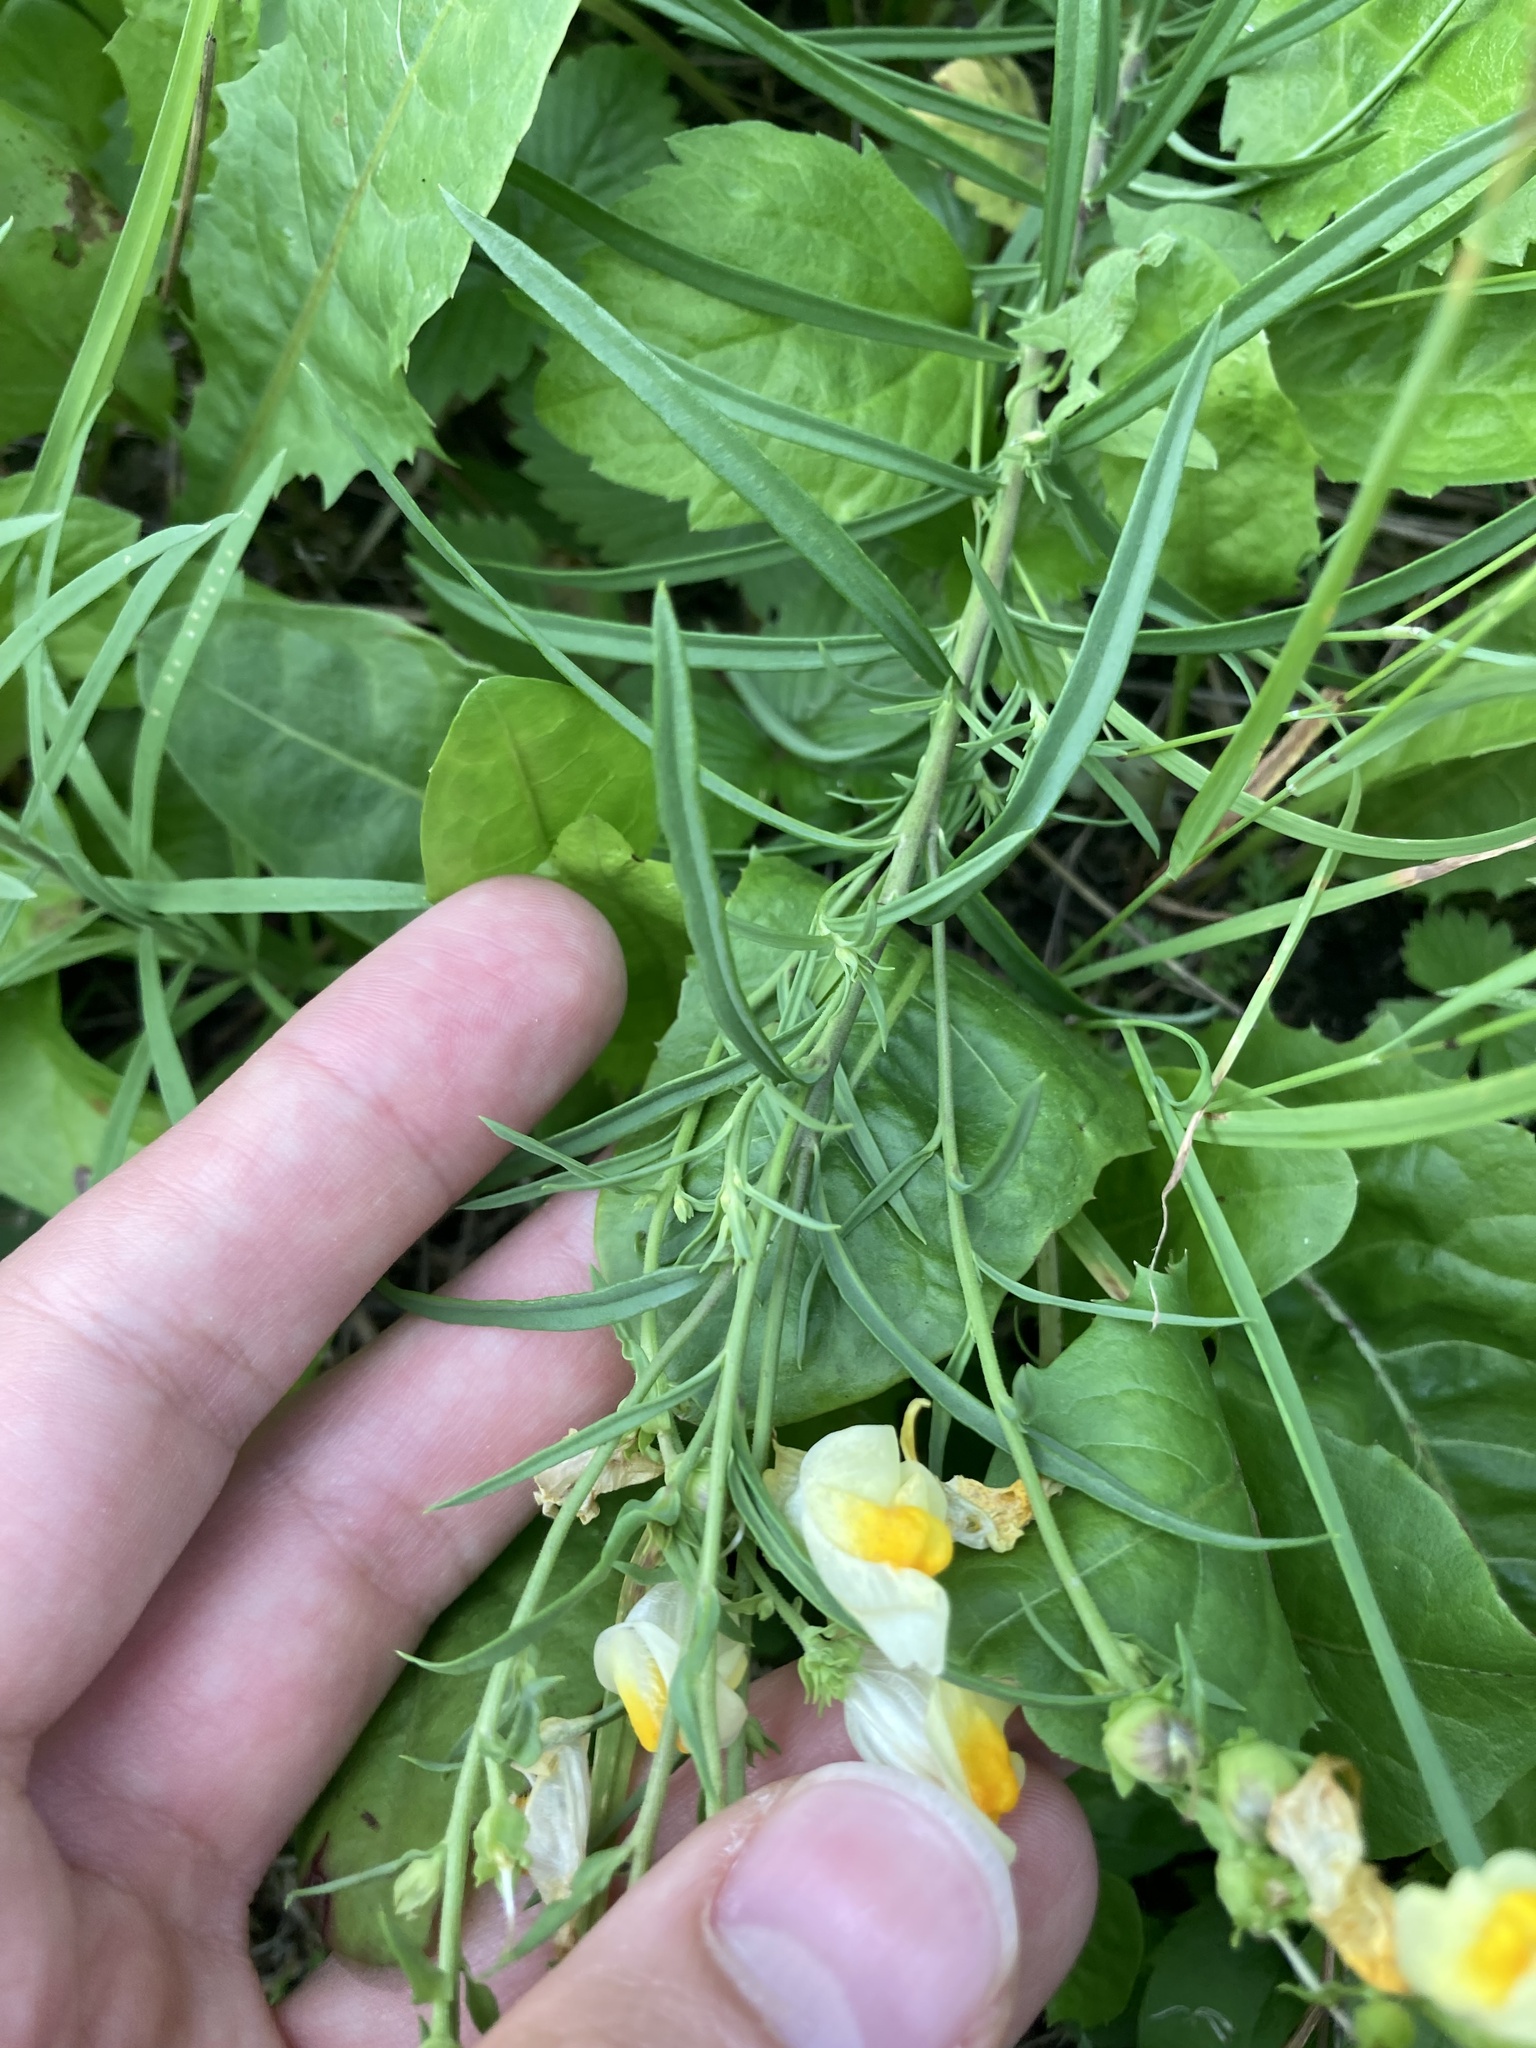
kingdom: Plantae
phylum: Tracheophyta
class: Magnoliopsida
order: Lamiales
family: Plantaginaceae
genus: Linaria
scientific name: Linaria vulgaris
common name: Butter and eggs
